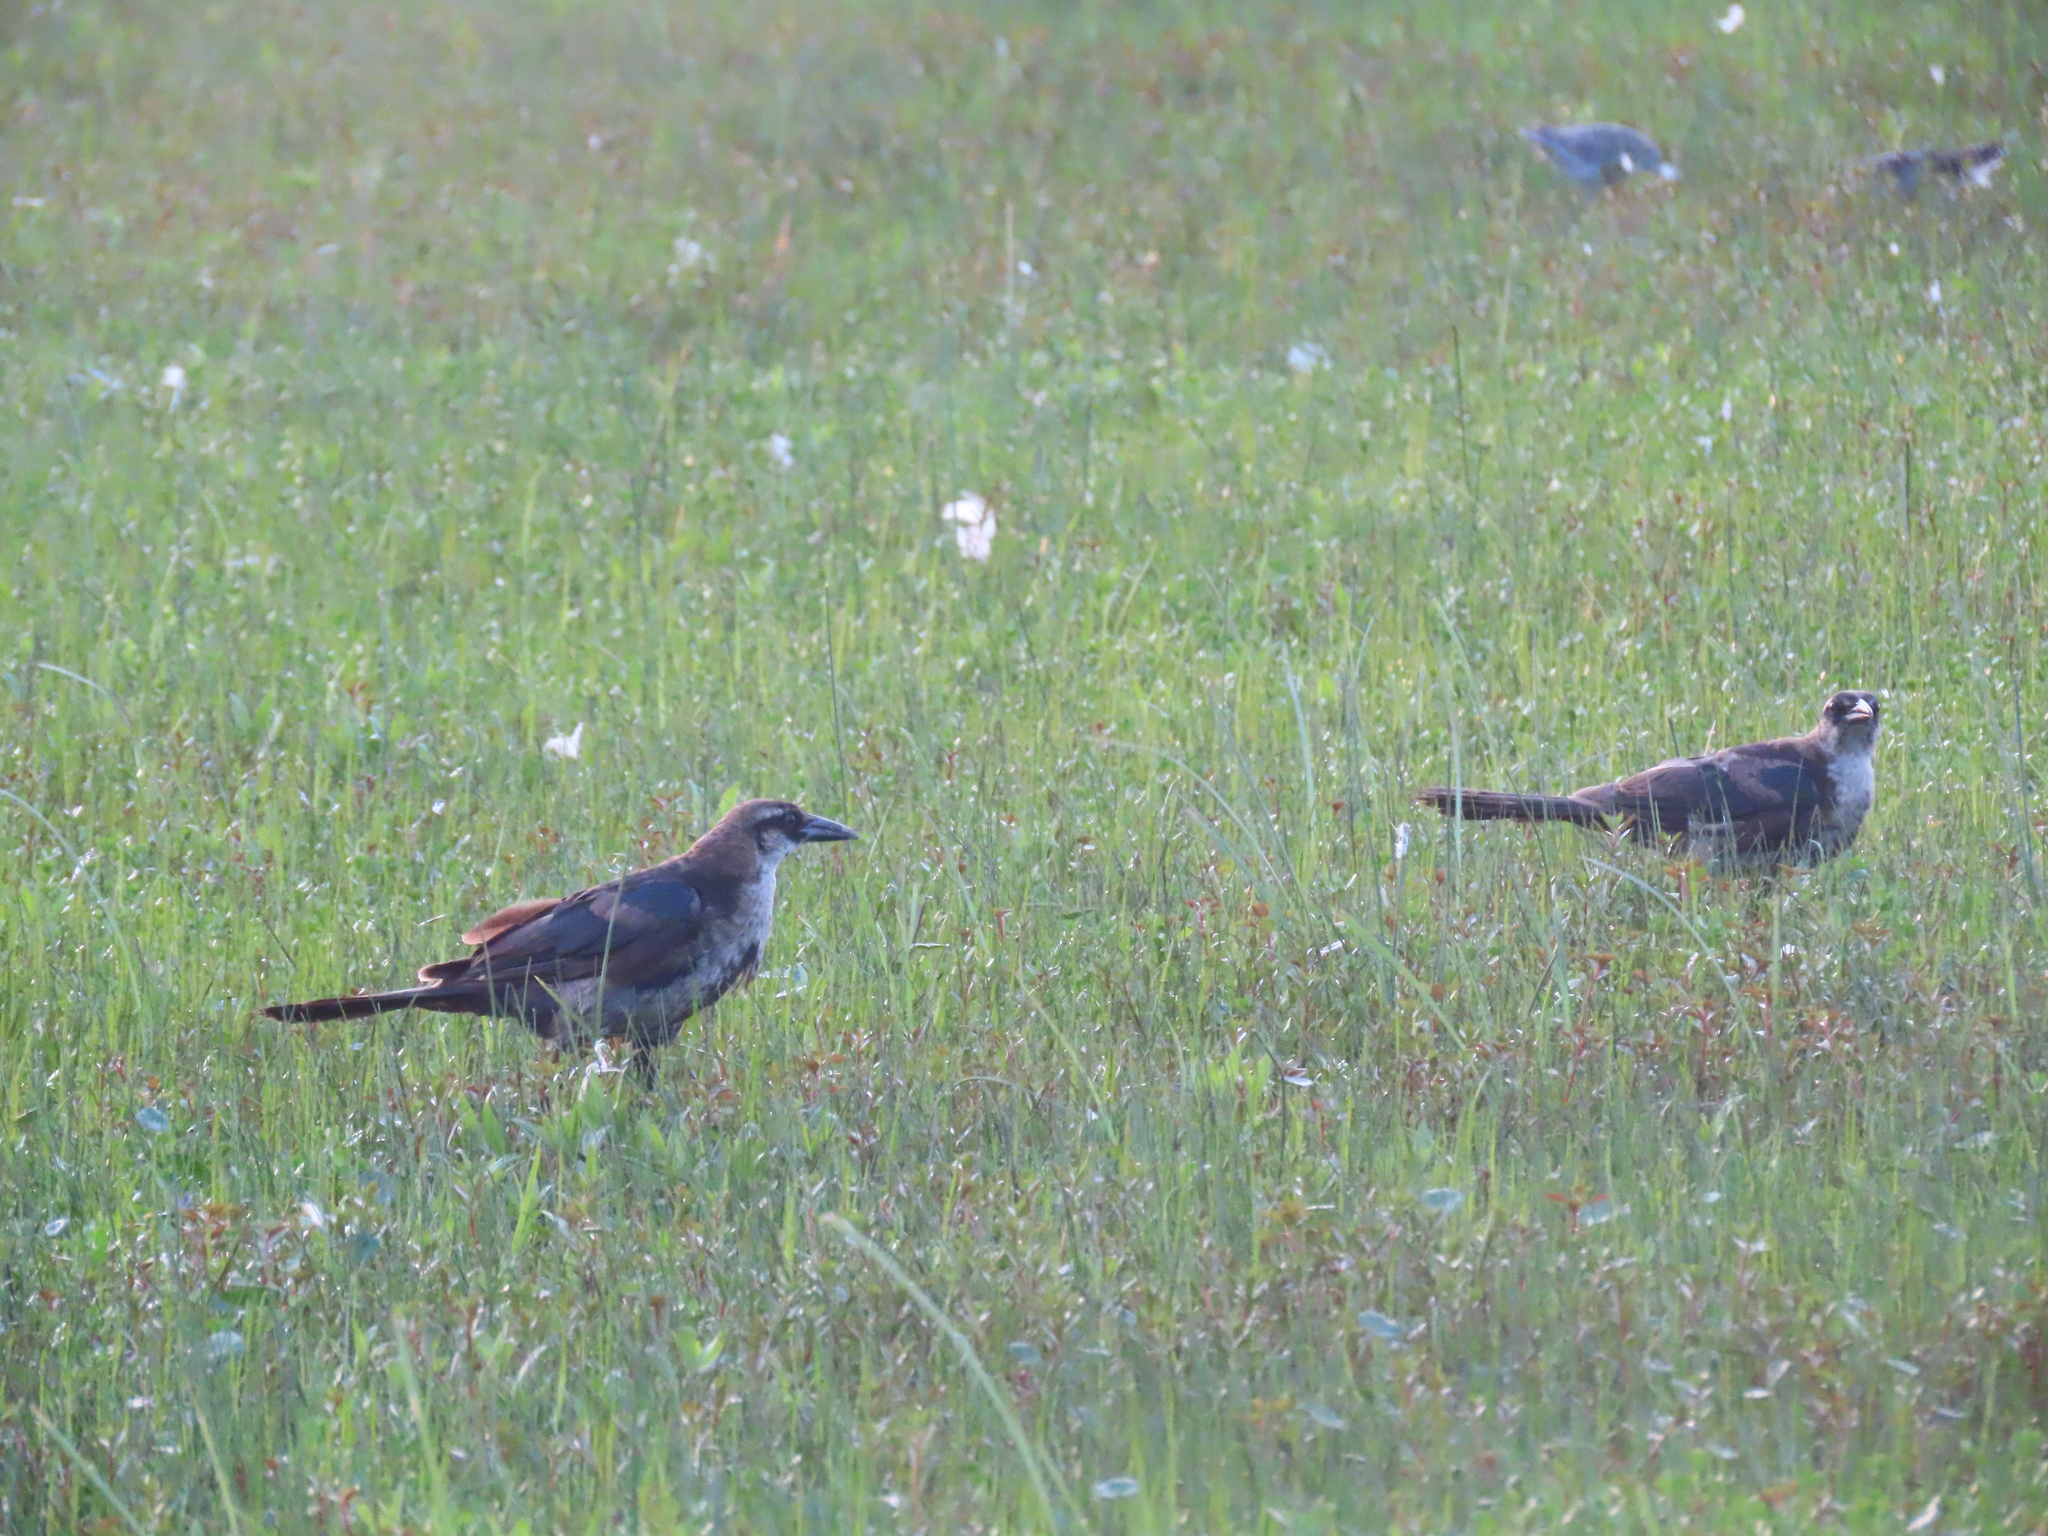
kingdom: Animalia
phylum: Chordata
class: Aves
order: Passeriformes
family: Icteridae
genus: Quiscalus
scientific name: Quiscalus major
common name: Boat-tailed grackle
